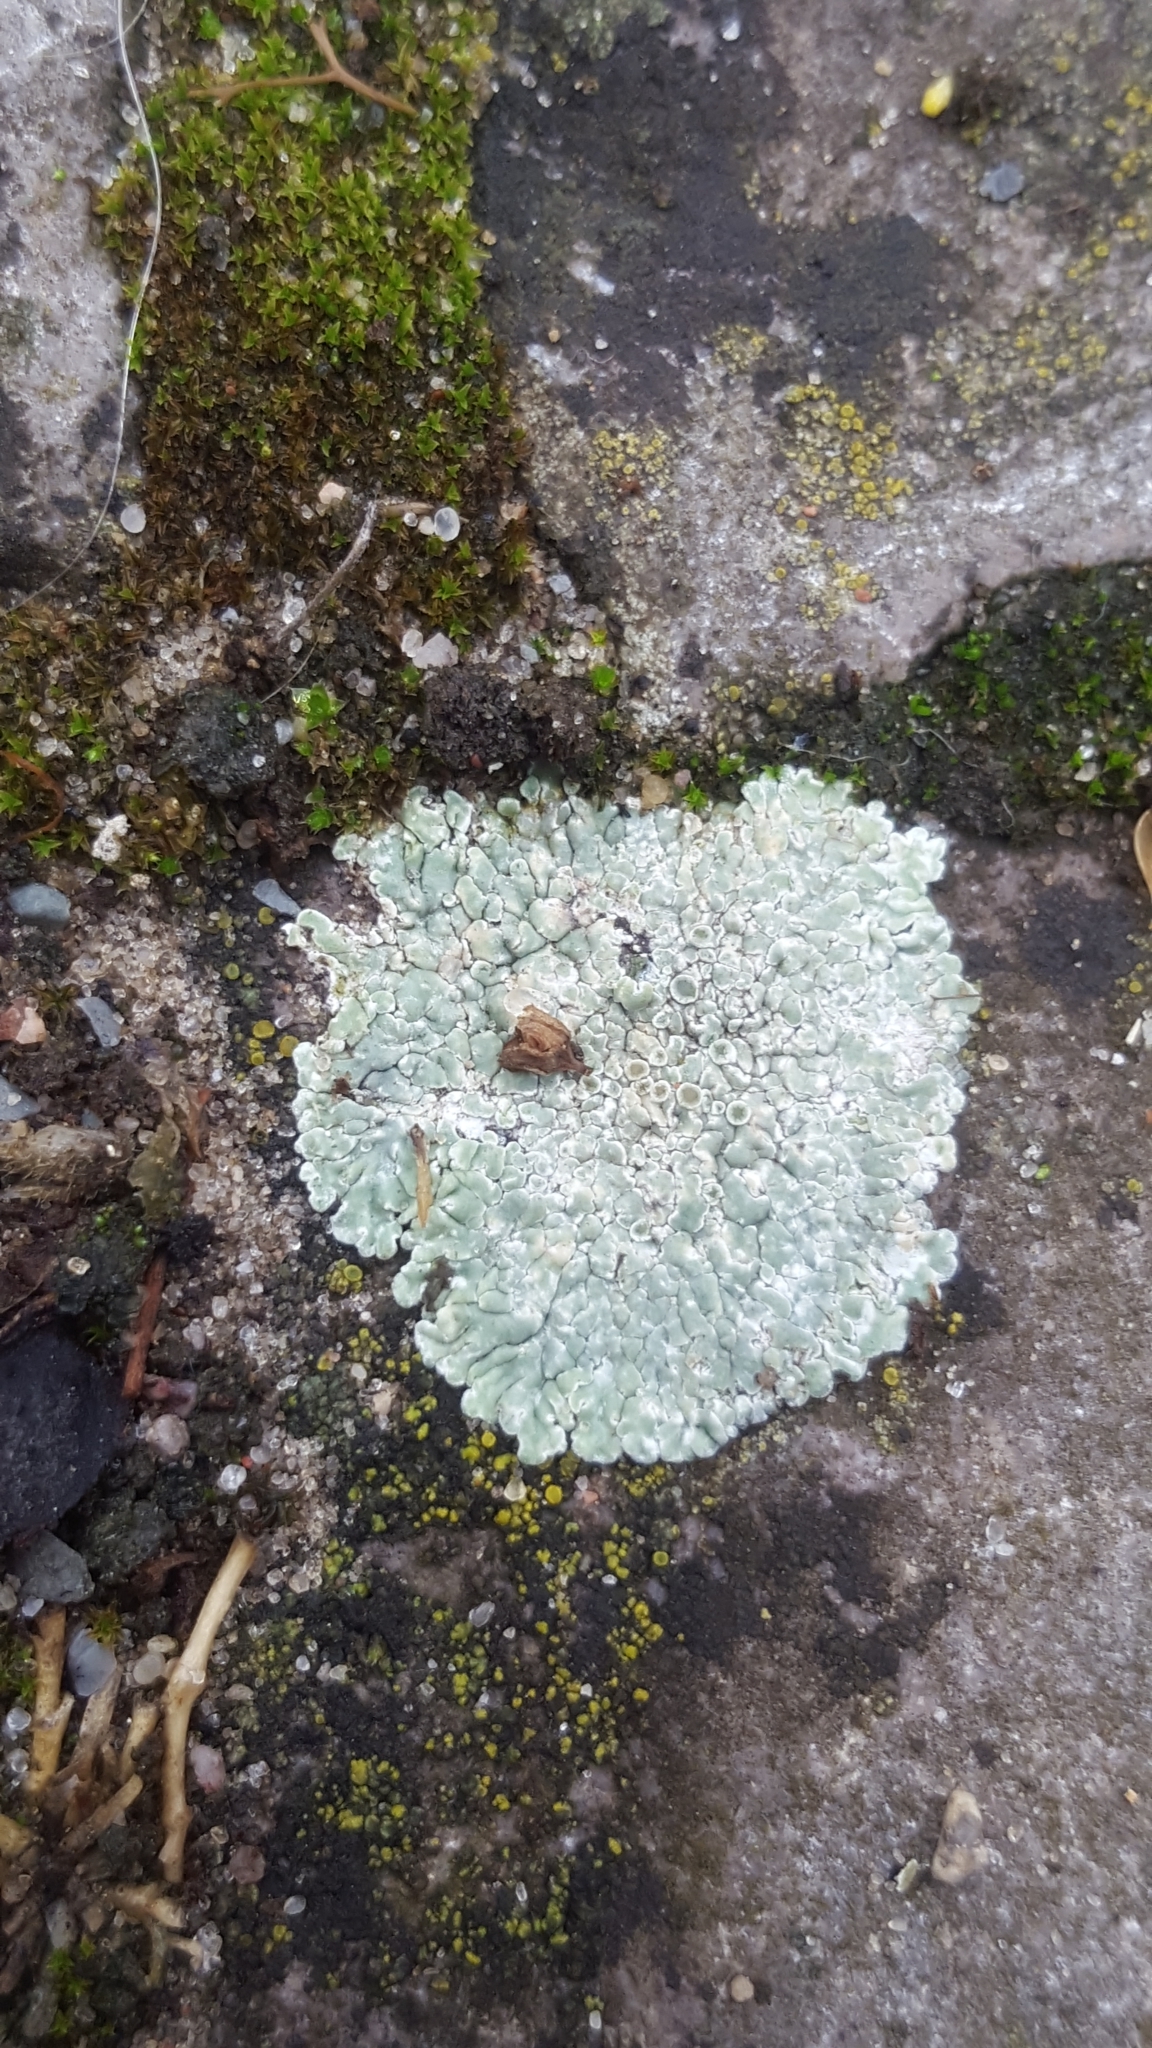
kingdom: Fungi
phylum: Ascomycota
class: Lecanoromycetes
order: Lecanorales
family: Lecanoraceae
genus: Protoparmeliopsis
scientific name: Protoparmeliopsis muralis
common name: Stonewall rim lichen
